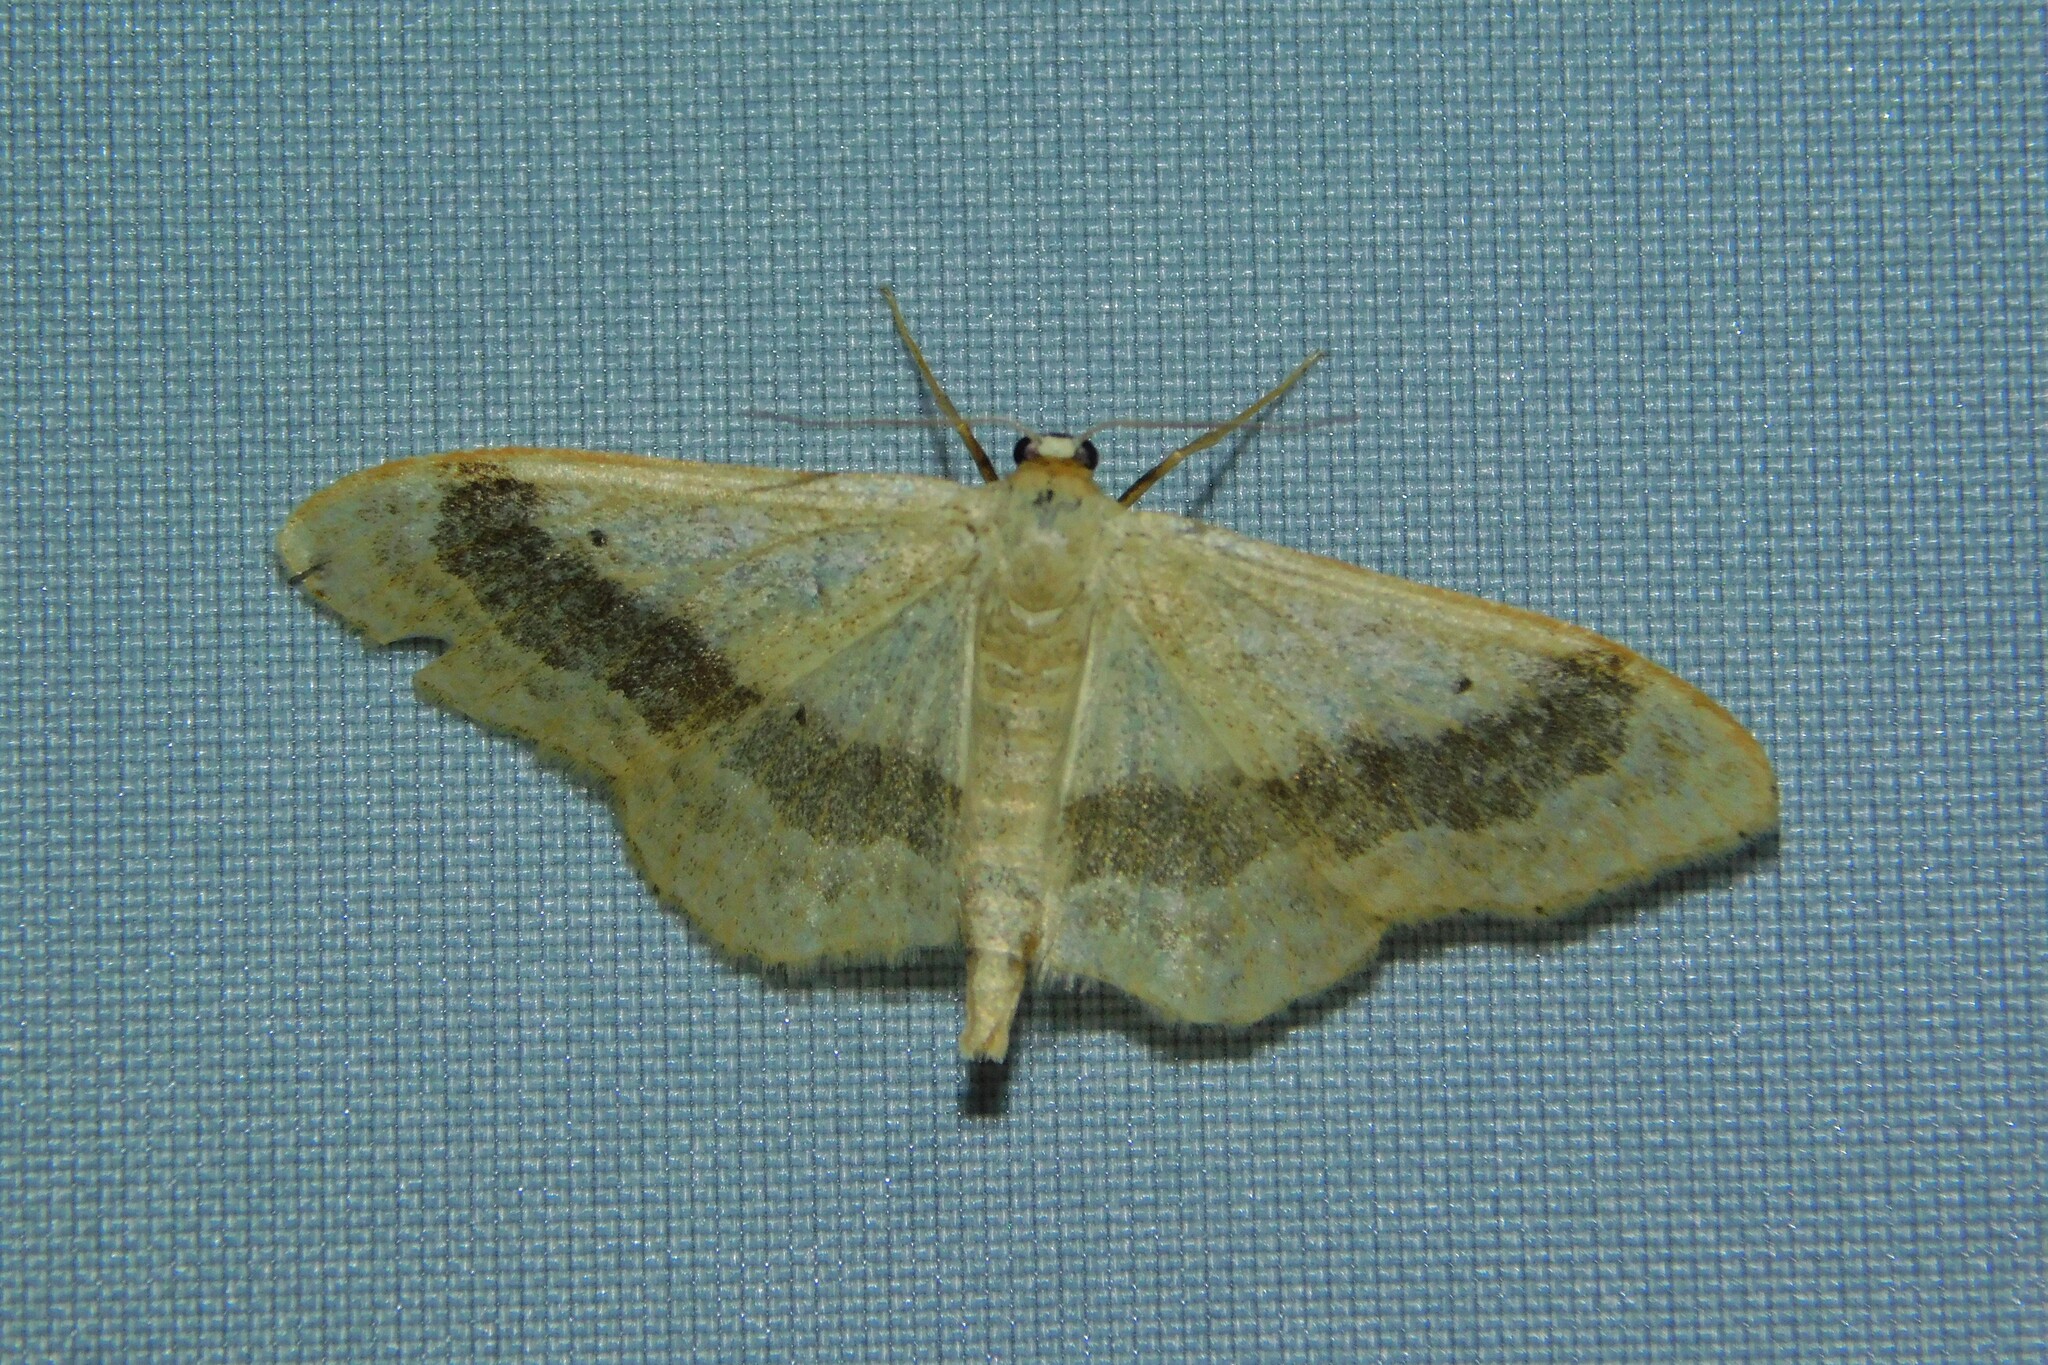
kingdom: Animalia
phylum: Arthropoda
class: Insecta
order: Lepidoptera
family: Geometridae
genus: Idaea
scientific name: Idaea aversata
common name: Riband wave
